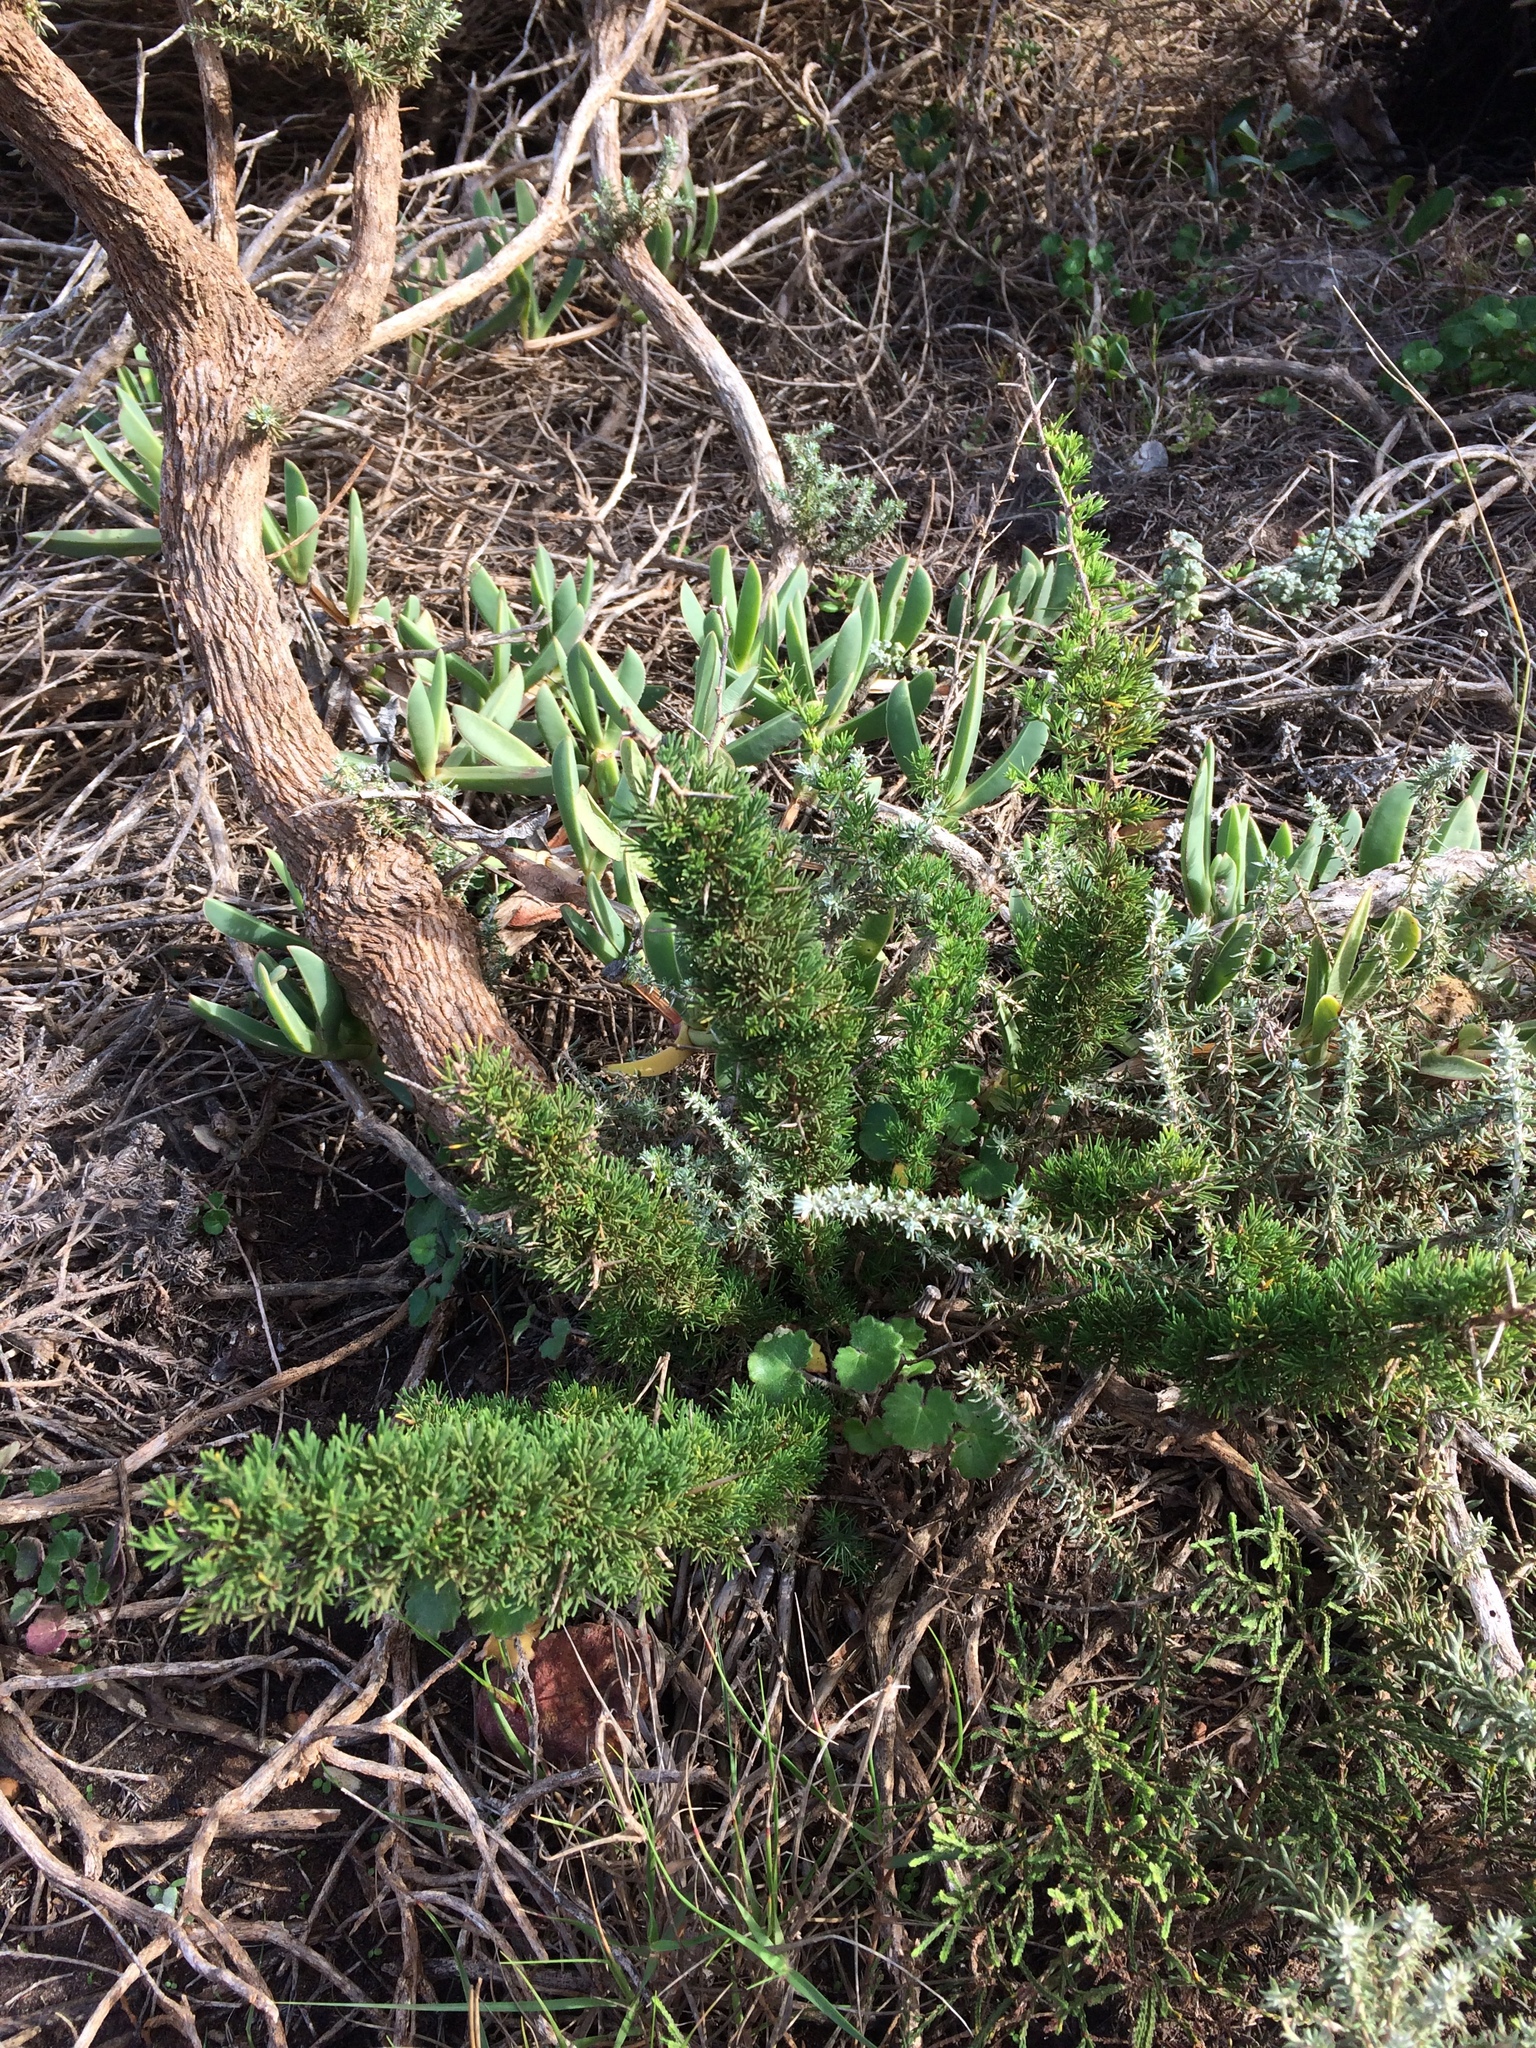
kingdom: Plantae
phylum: Tracheophyta
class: Liliopsida
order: Asparagales
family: Asparagaceae
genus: Asparagus
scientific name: Asparagus stipulaceus
